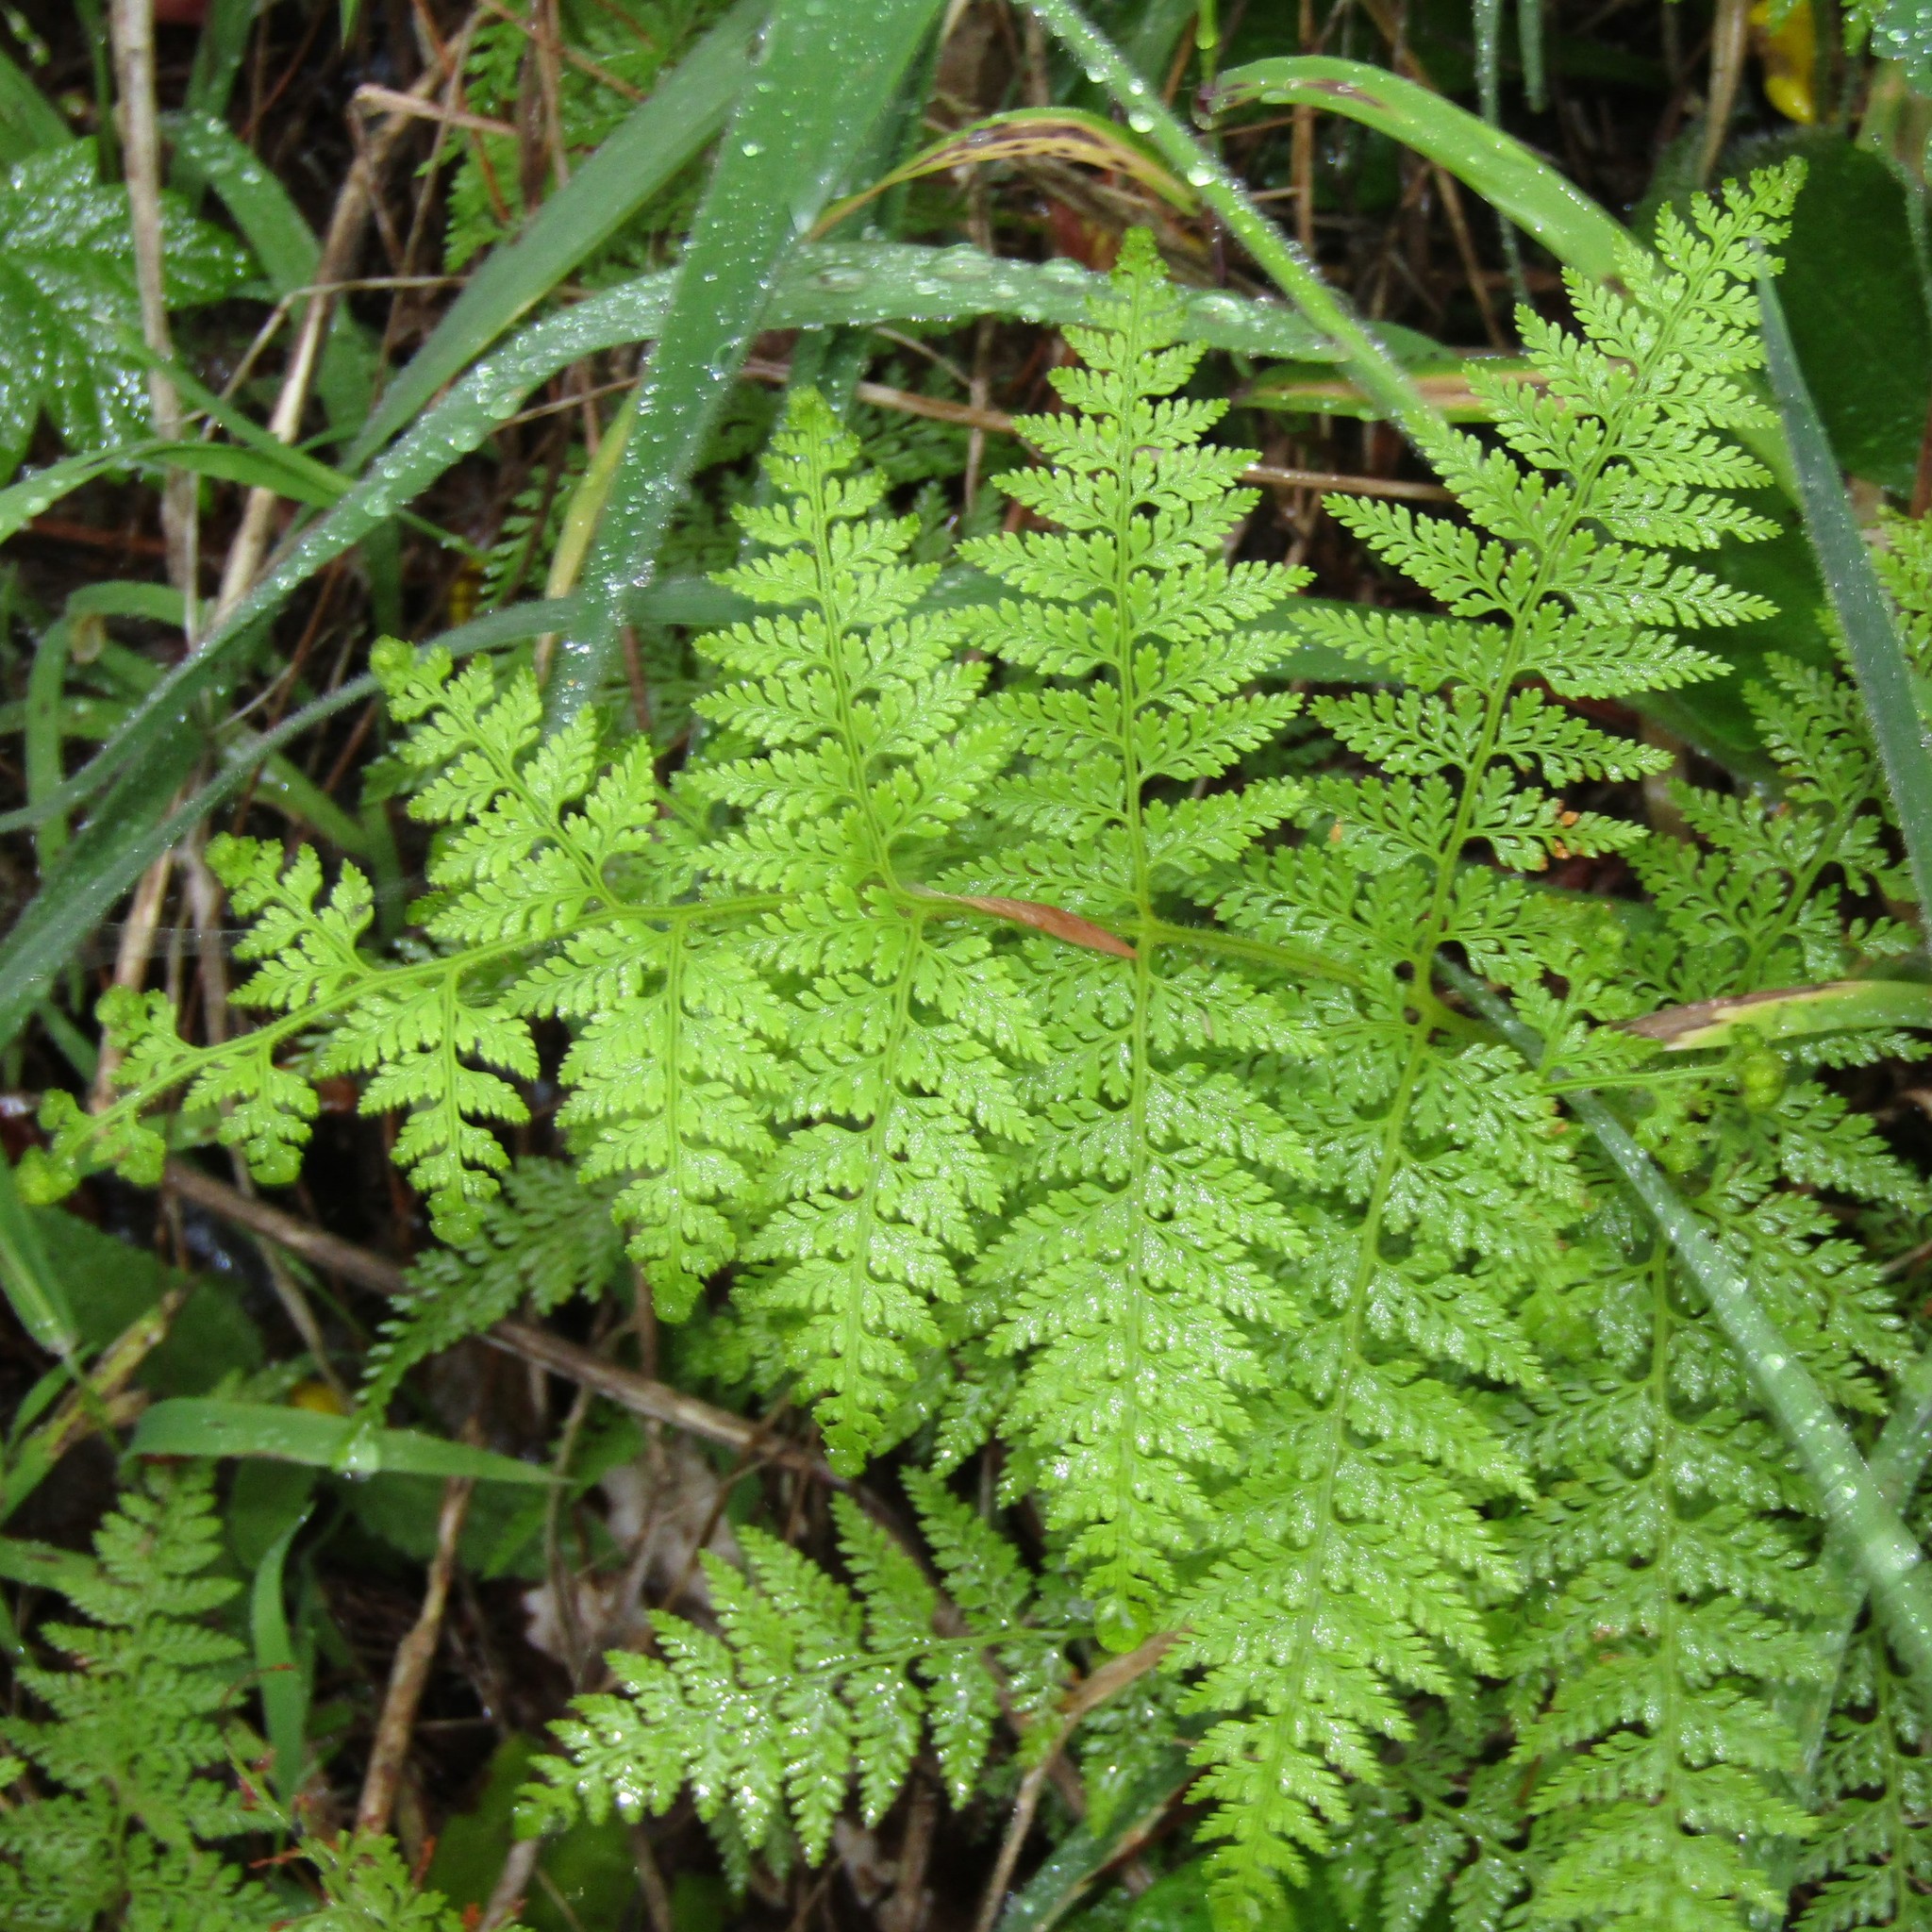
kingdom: Plantae
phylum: Tracheophyta
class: Polypodiopsida
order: Polypodiales
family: Dennstaedtiaceae
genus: Paesia
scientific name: Paesia scaberula
